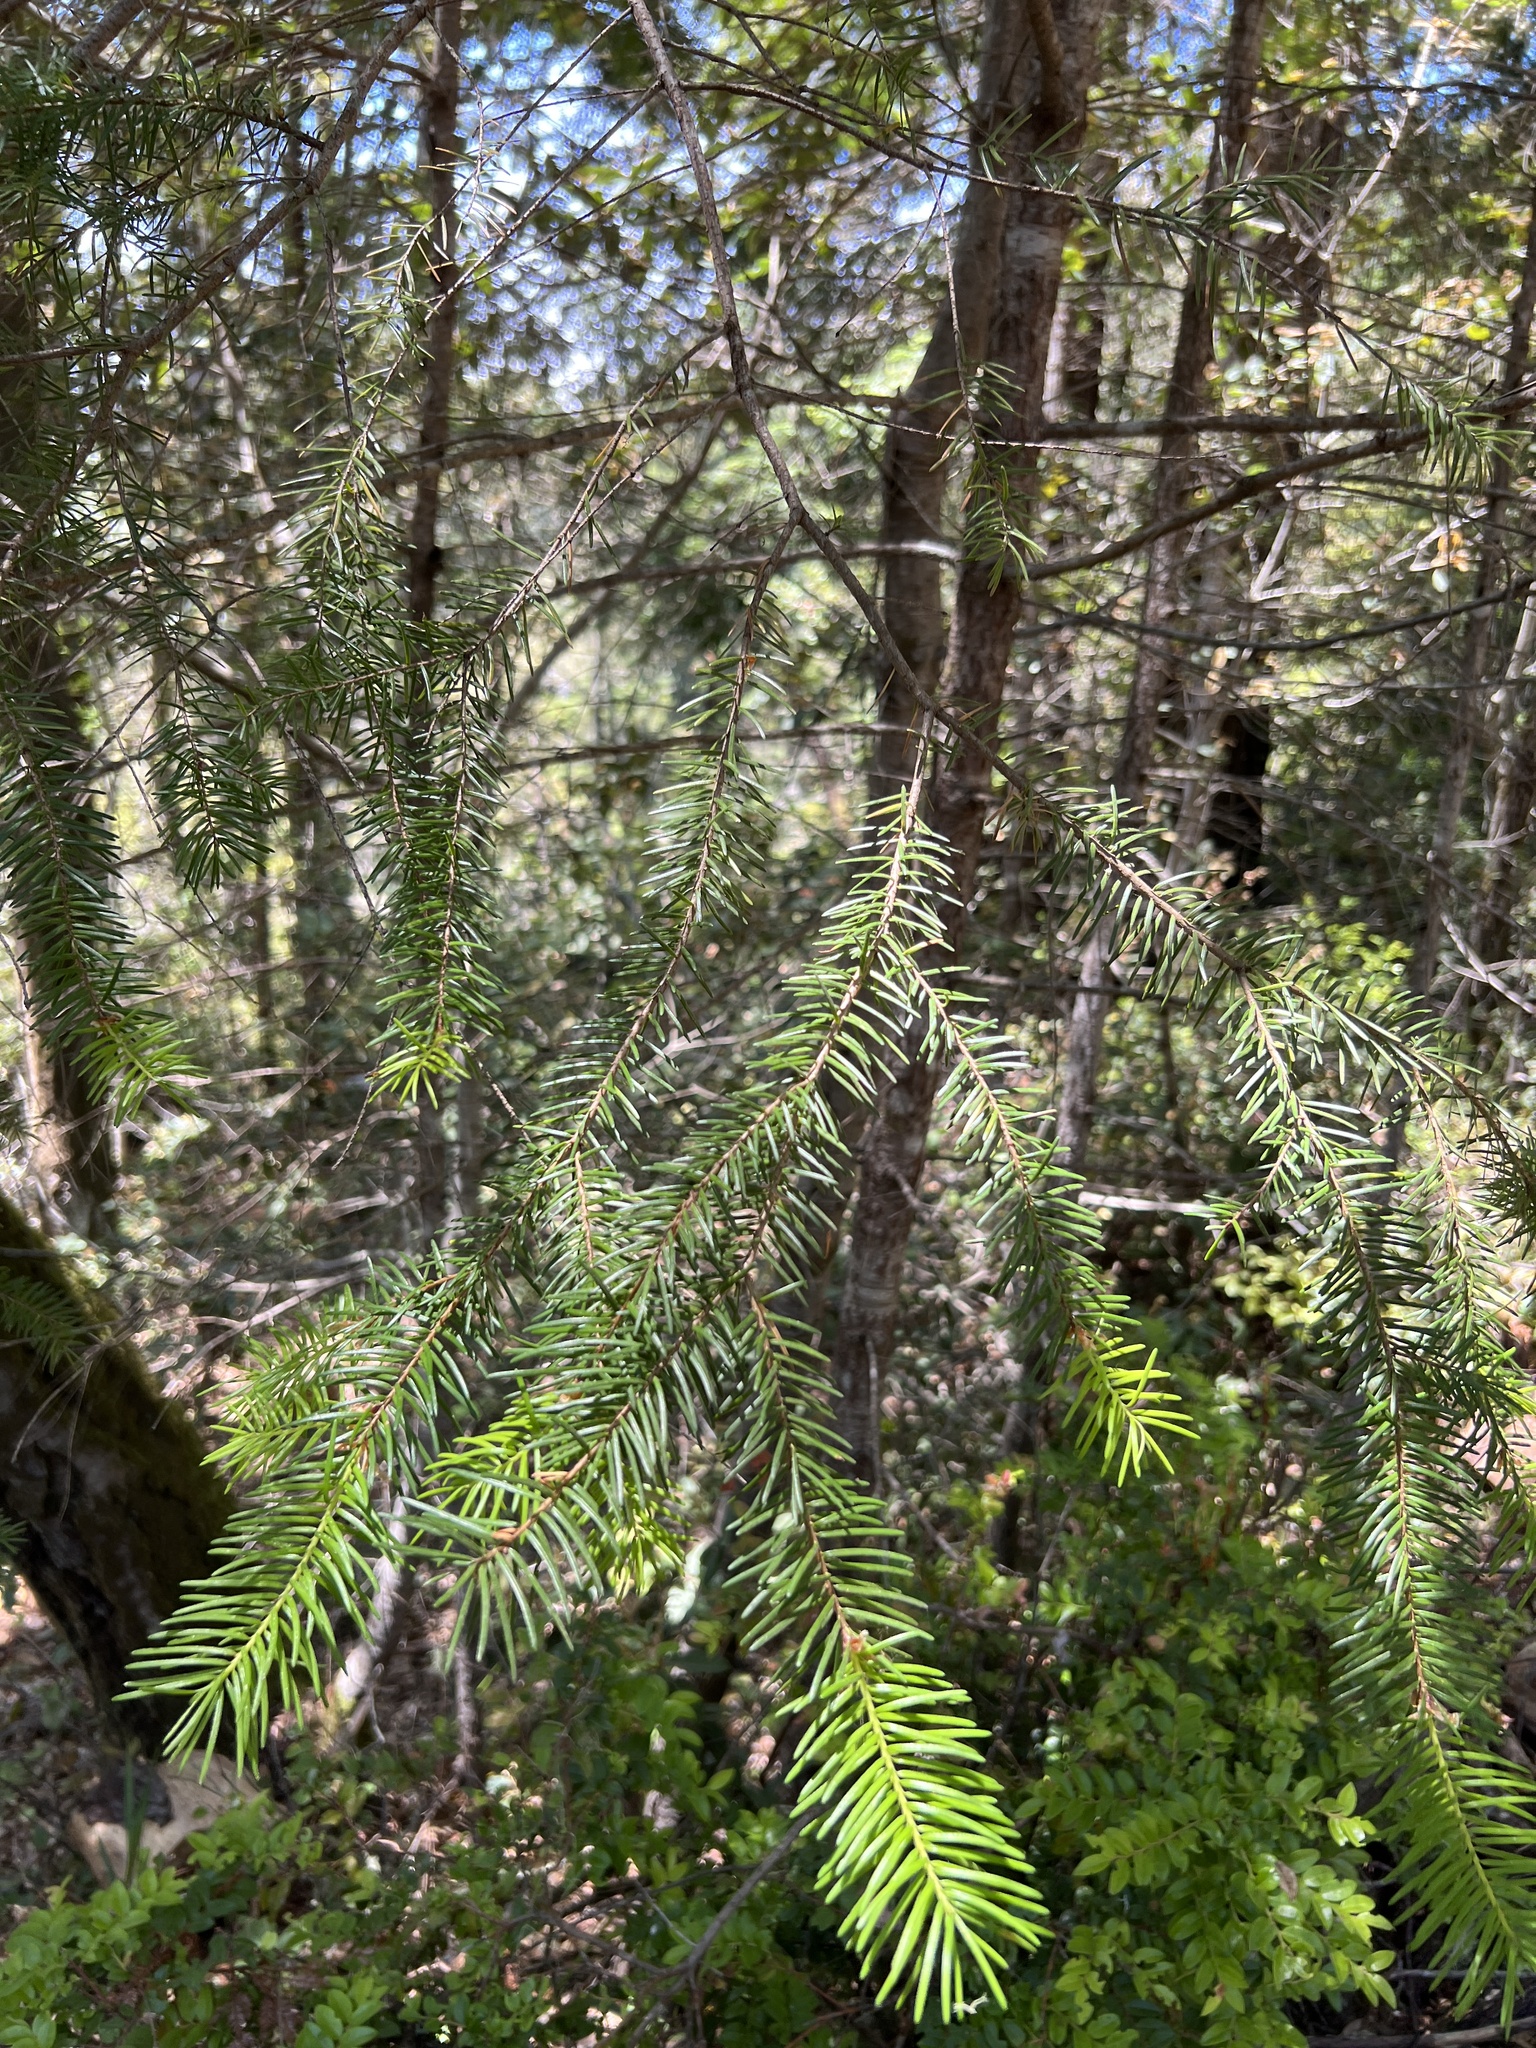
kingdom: Plantae
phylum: Tracheophyta
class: Pinopsida
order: Pinales
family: Pinaceae
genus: Pseudotsuga
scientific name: Pseudotsuga menziesii
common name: Douglas fir
